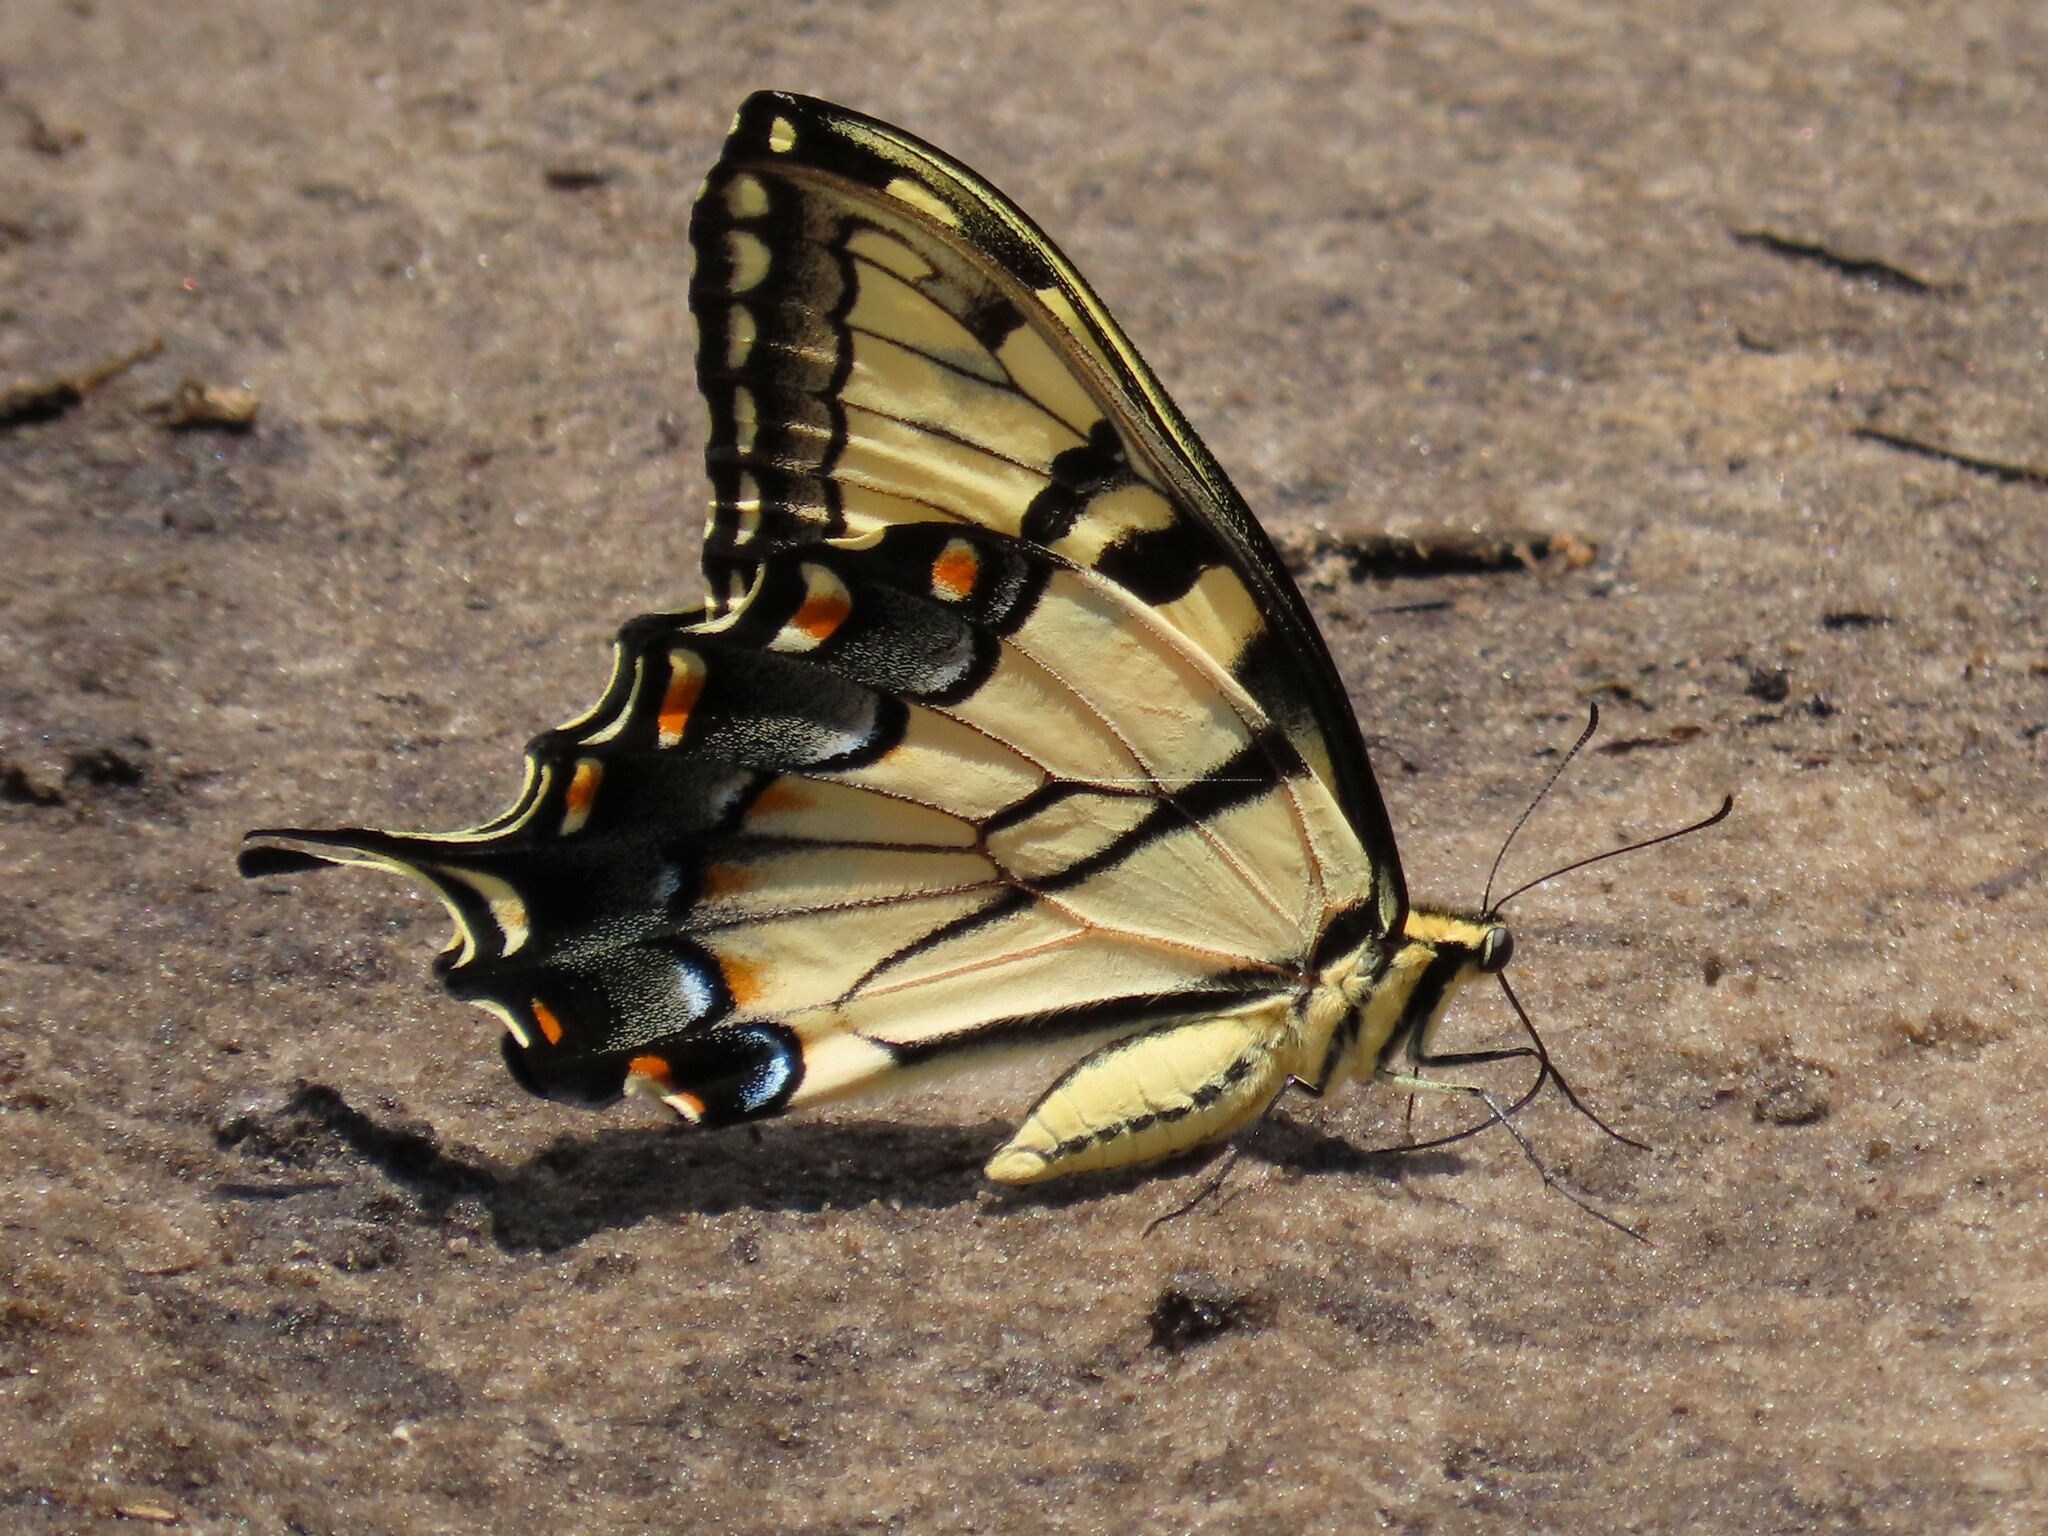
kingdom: Animalia
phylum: Arthropoda
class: Insecta
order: Lepidoptera
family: Papilionidae
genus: Papilio
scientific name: Papilio glaucus
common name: Tiger swallowtail
